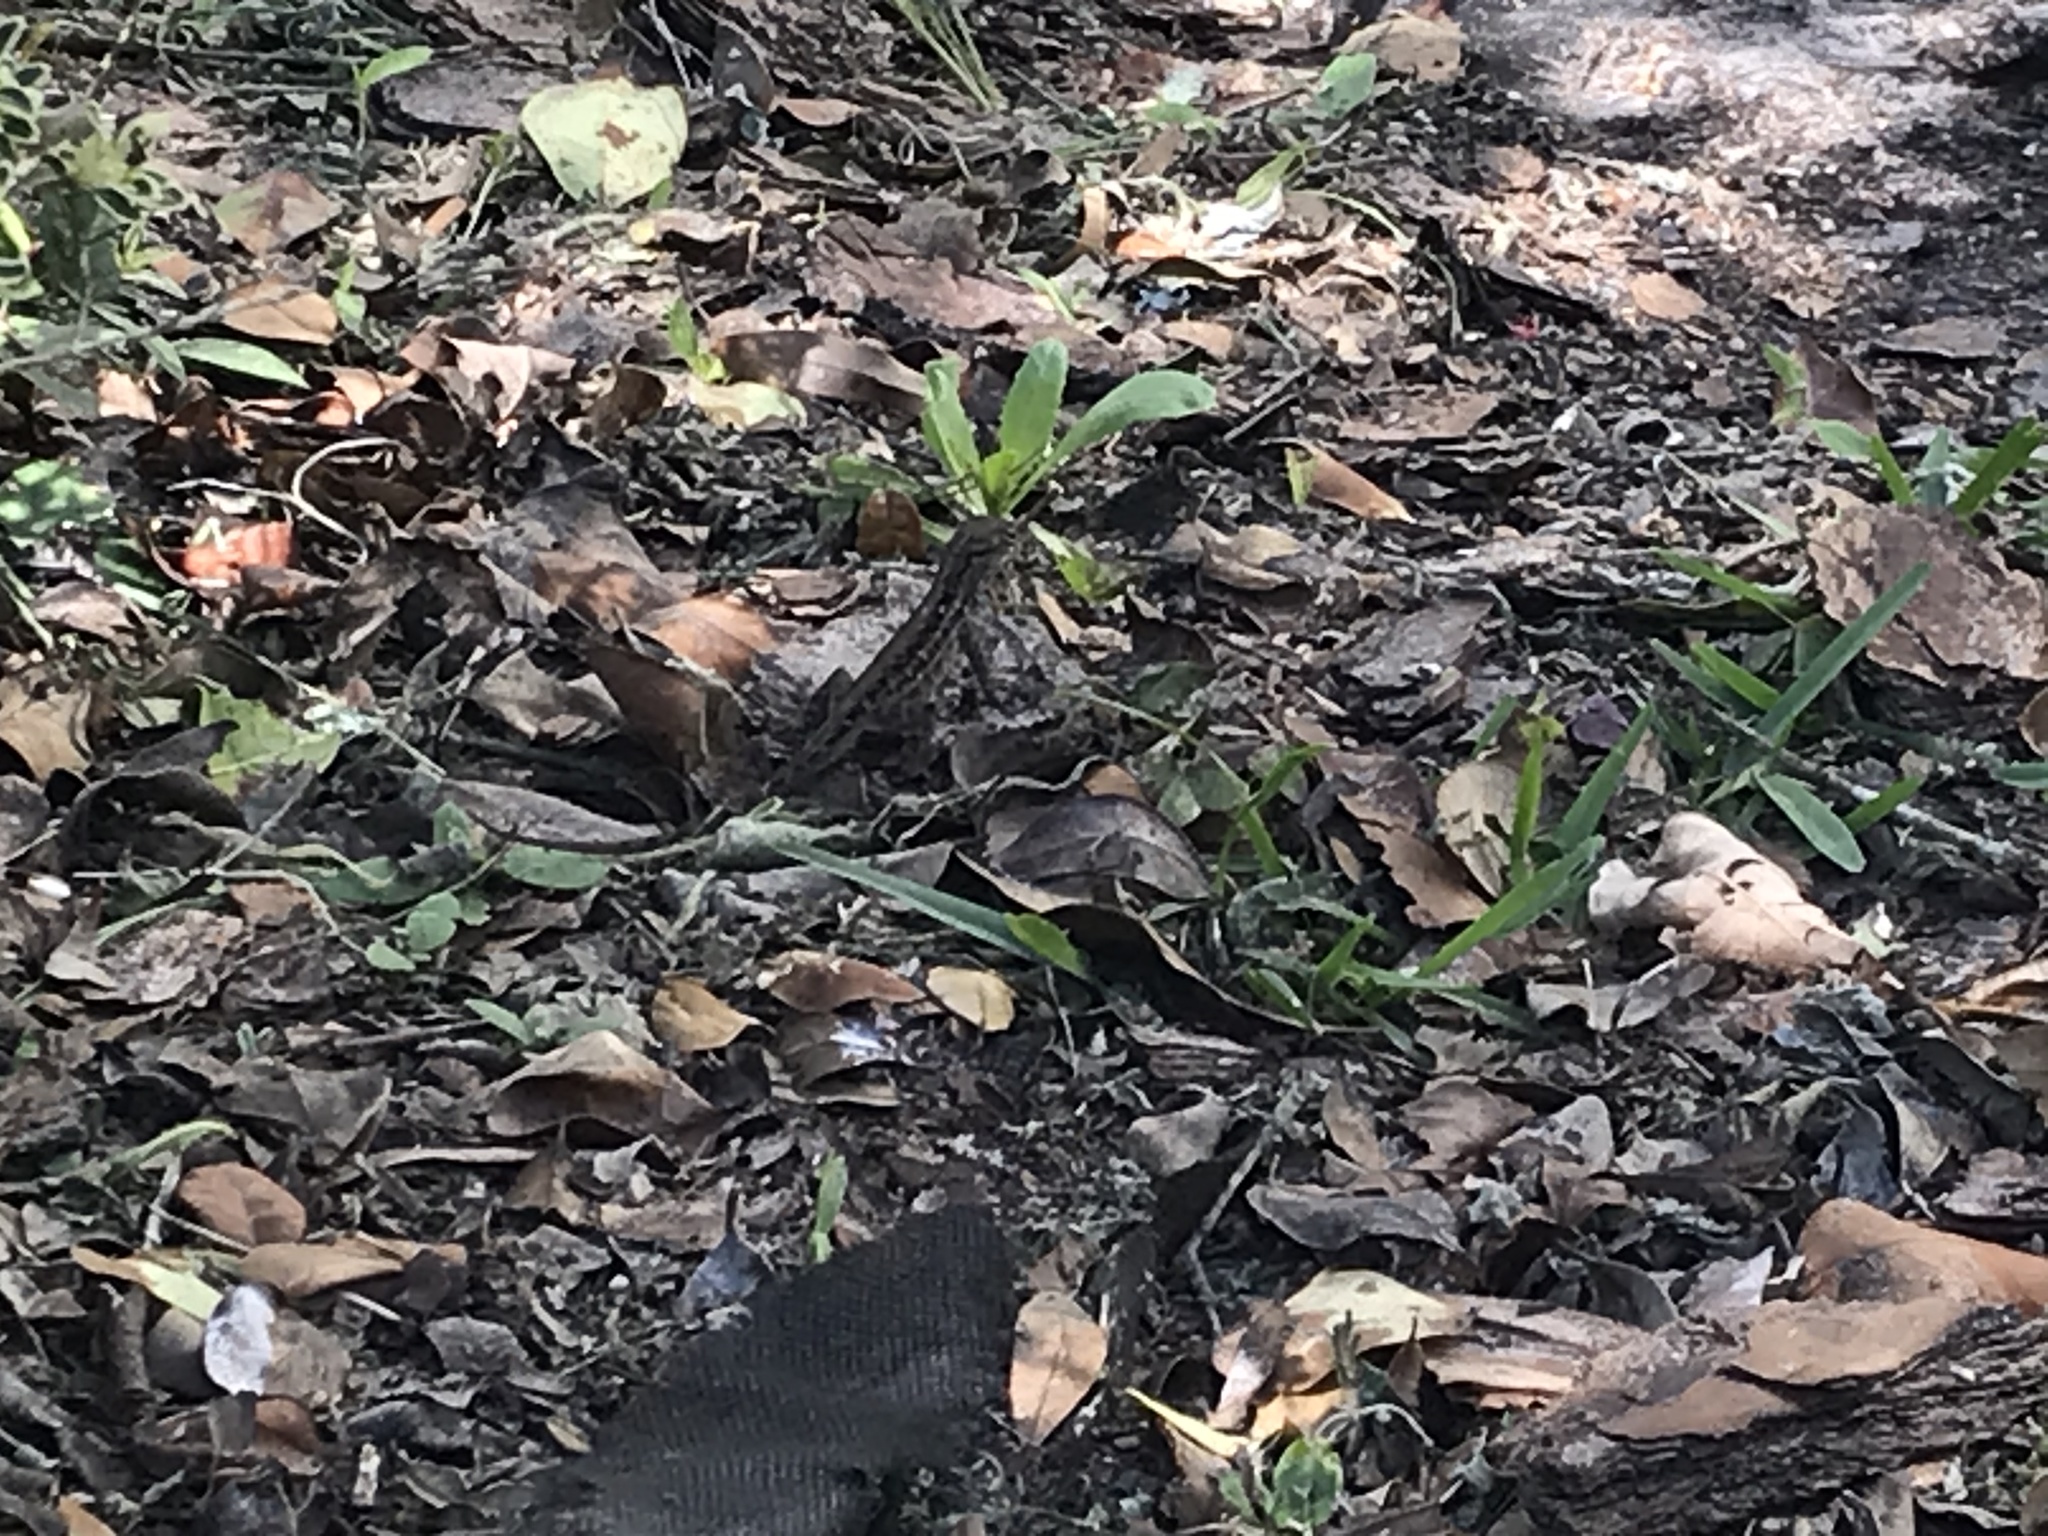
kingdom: Animalia
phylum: Chordata
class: Squamata
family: Dactyloidae
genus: Anolis
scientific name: Anolis sagrei
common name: Brown anole
